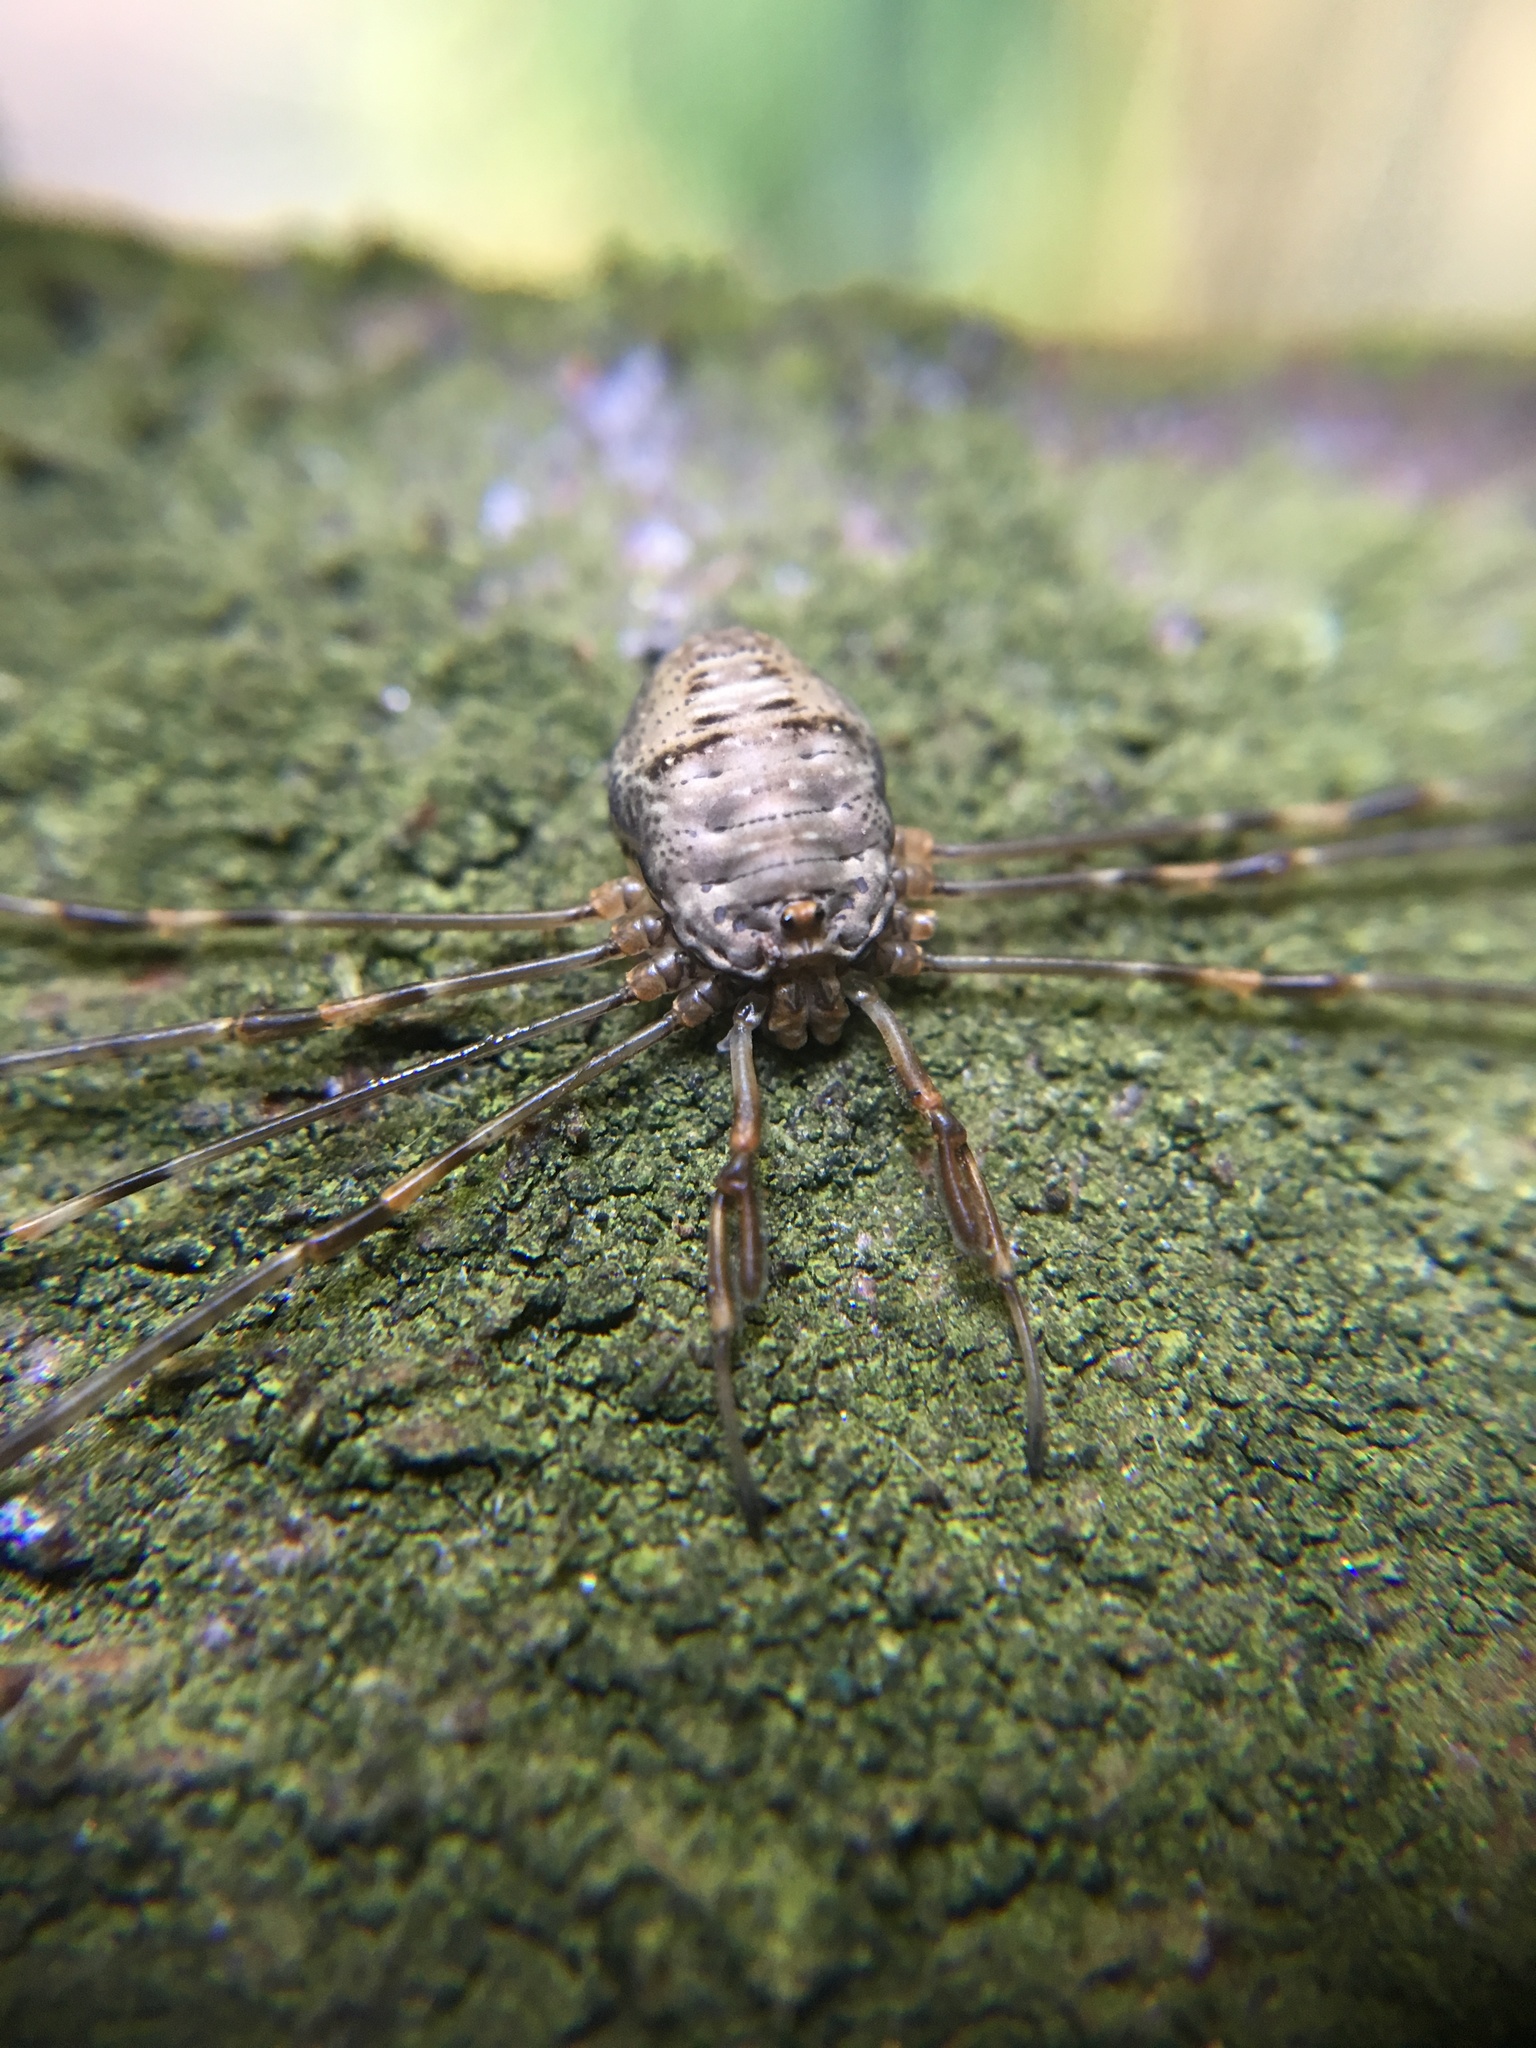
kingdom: Animalia
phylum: Arthropoda
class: Arachnida
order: Opiliones
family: Phalangiidae
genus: Dicranopalpus
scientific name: Dicranopalpus ramosus
